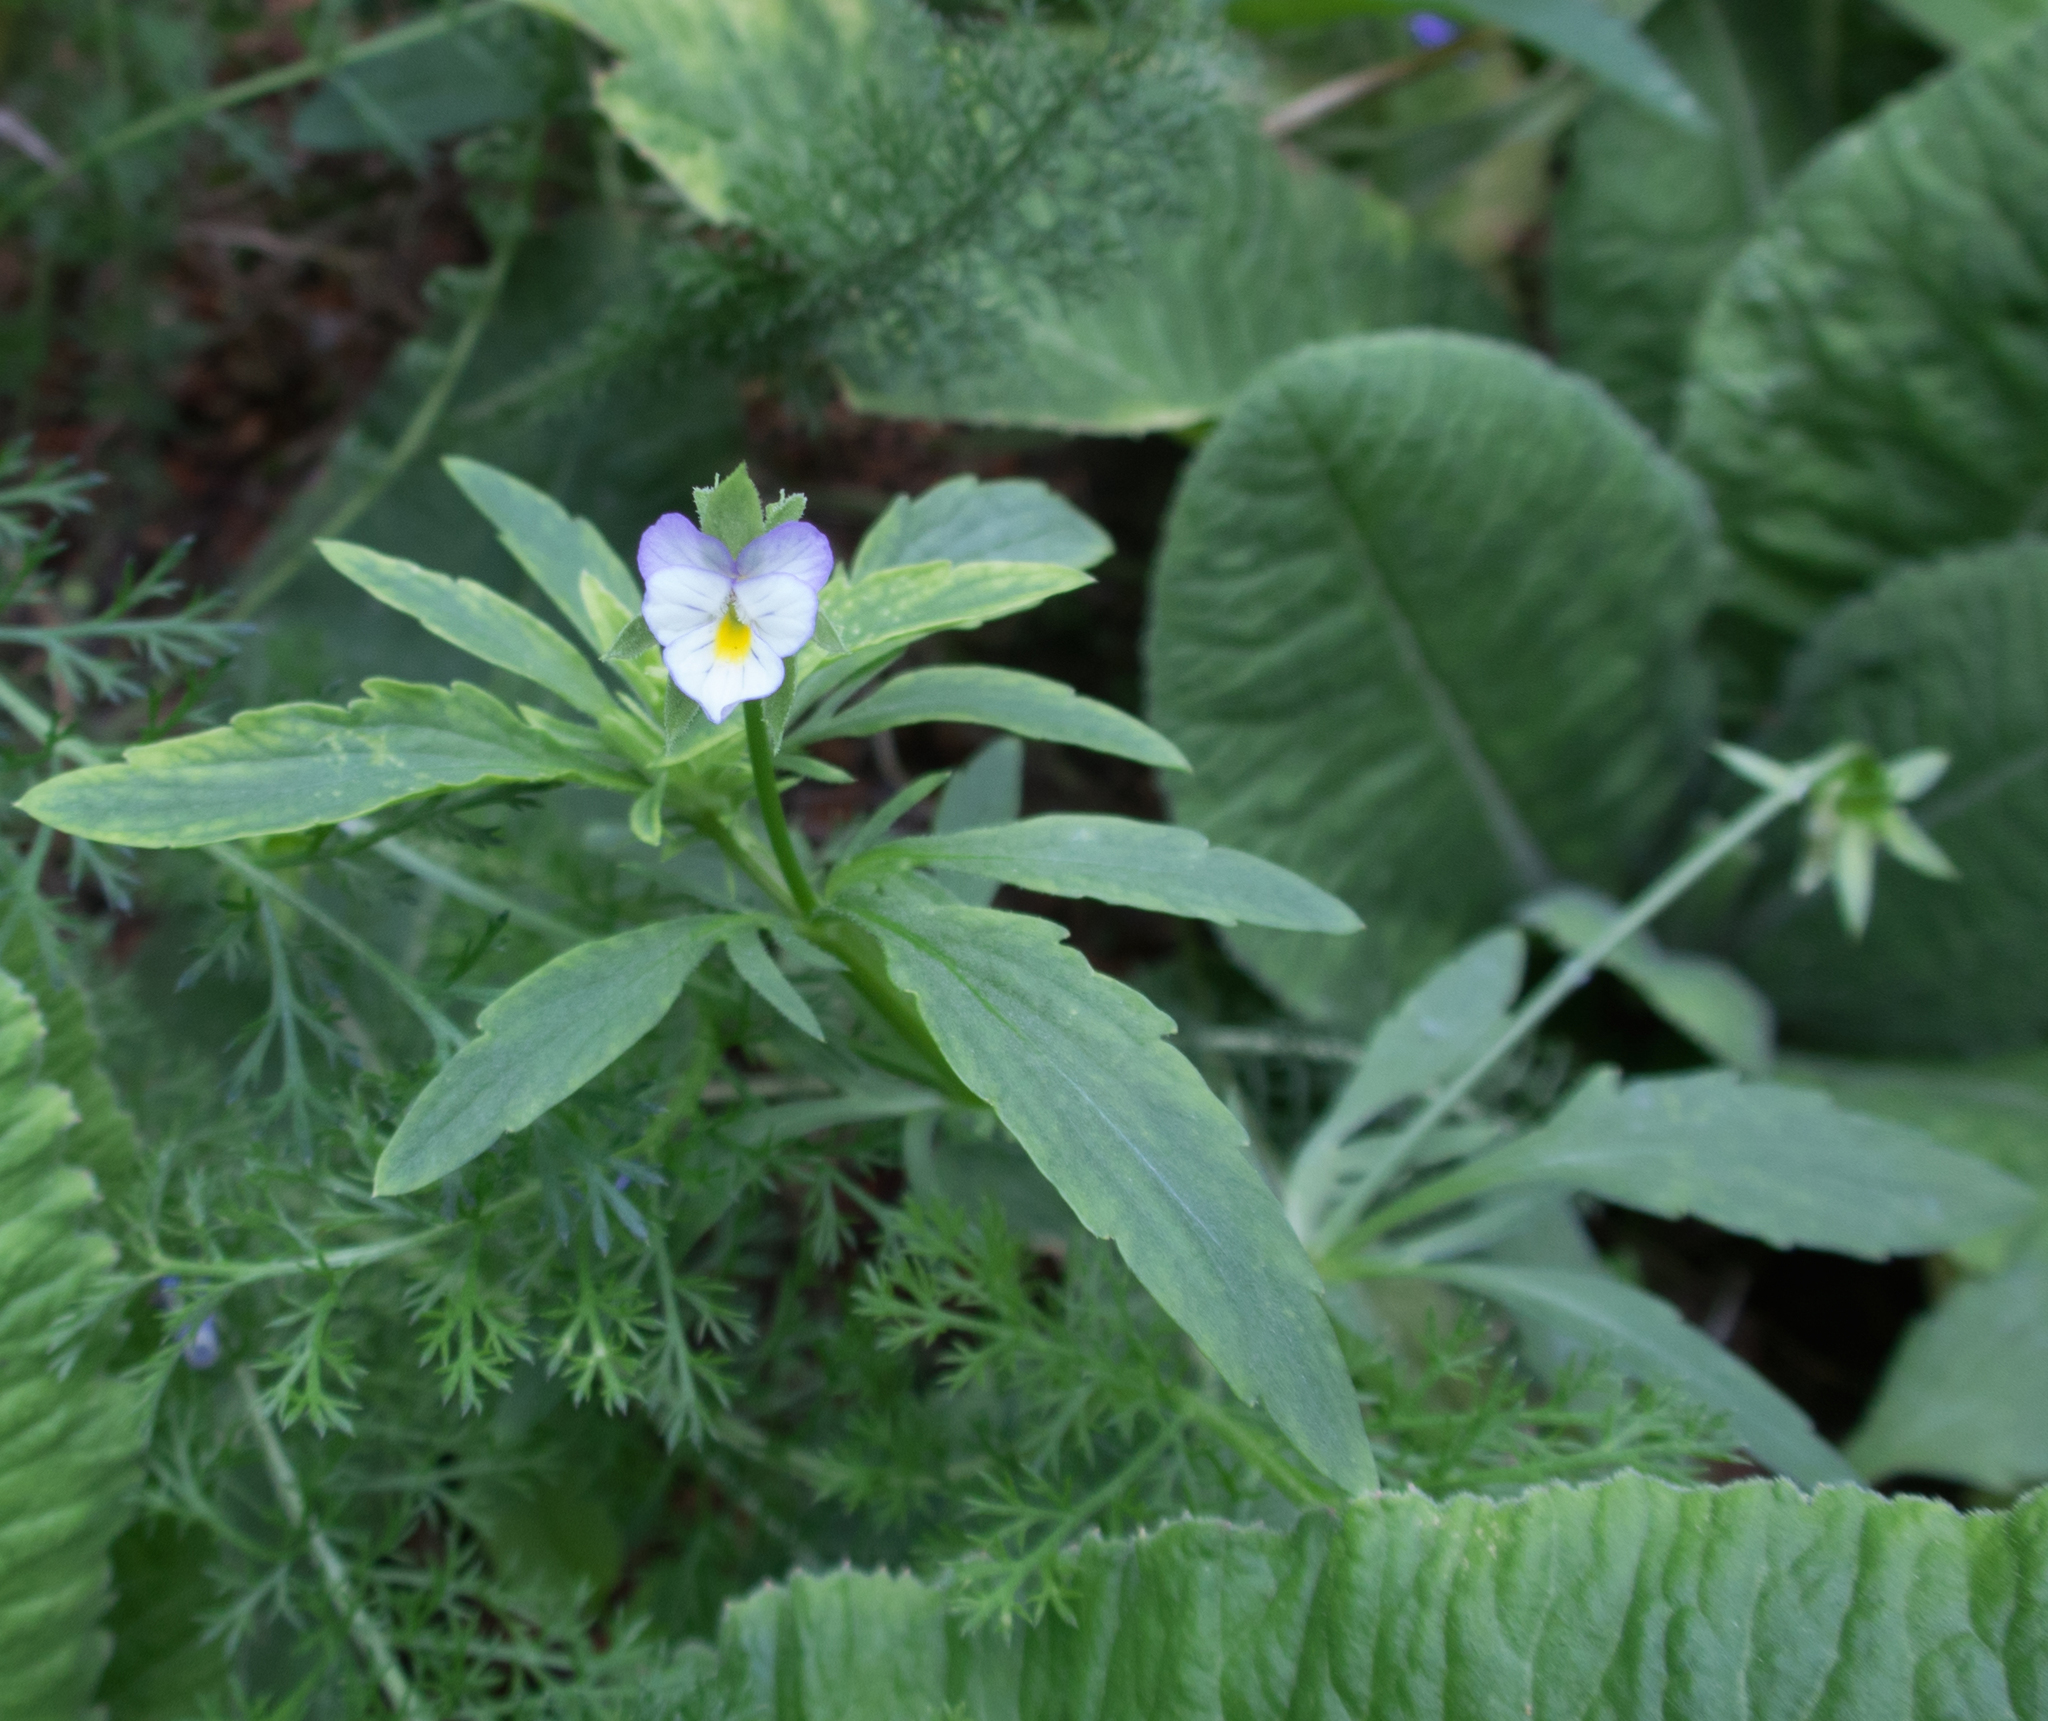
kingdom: Plantae
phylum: Tracheophyta
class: Magnoliopsida
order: Malpighiales
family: Violaceae
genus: Viola
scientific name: Viola arvensis
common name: Field pansy
